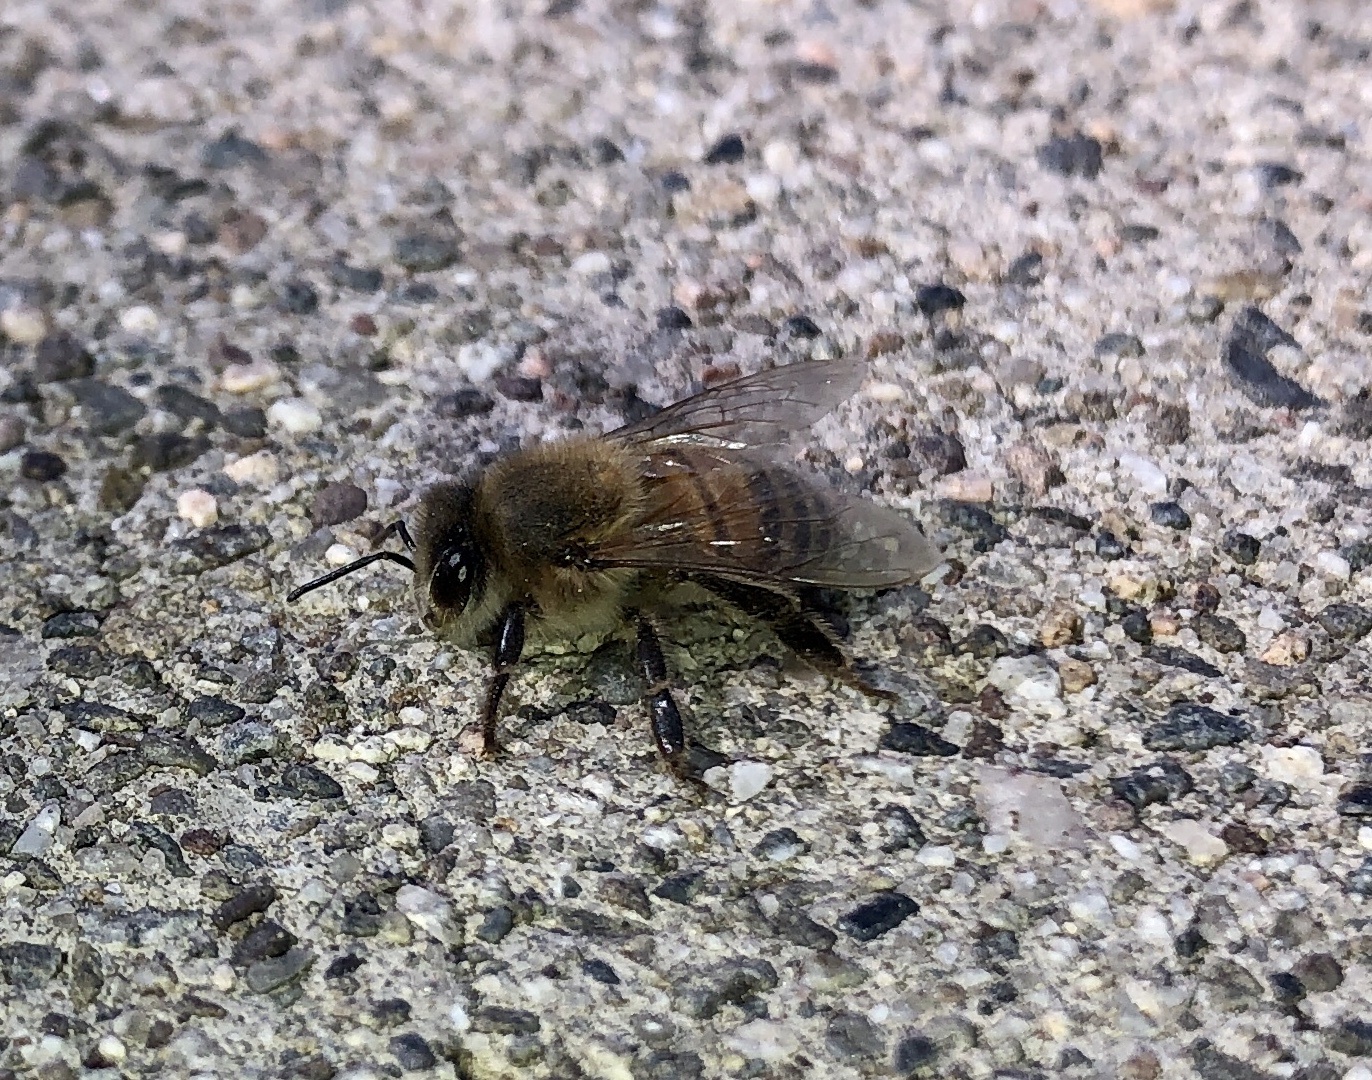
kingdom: Animalia
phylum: Arthropoda
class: Insecta
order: Hymenoptera
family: Apidae
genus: Apis
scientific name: Apis mellifera
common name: Honey bee
